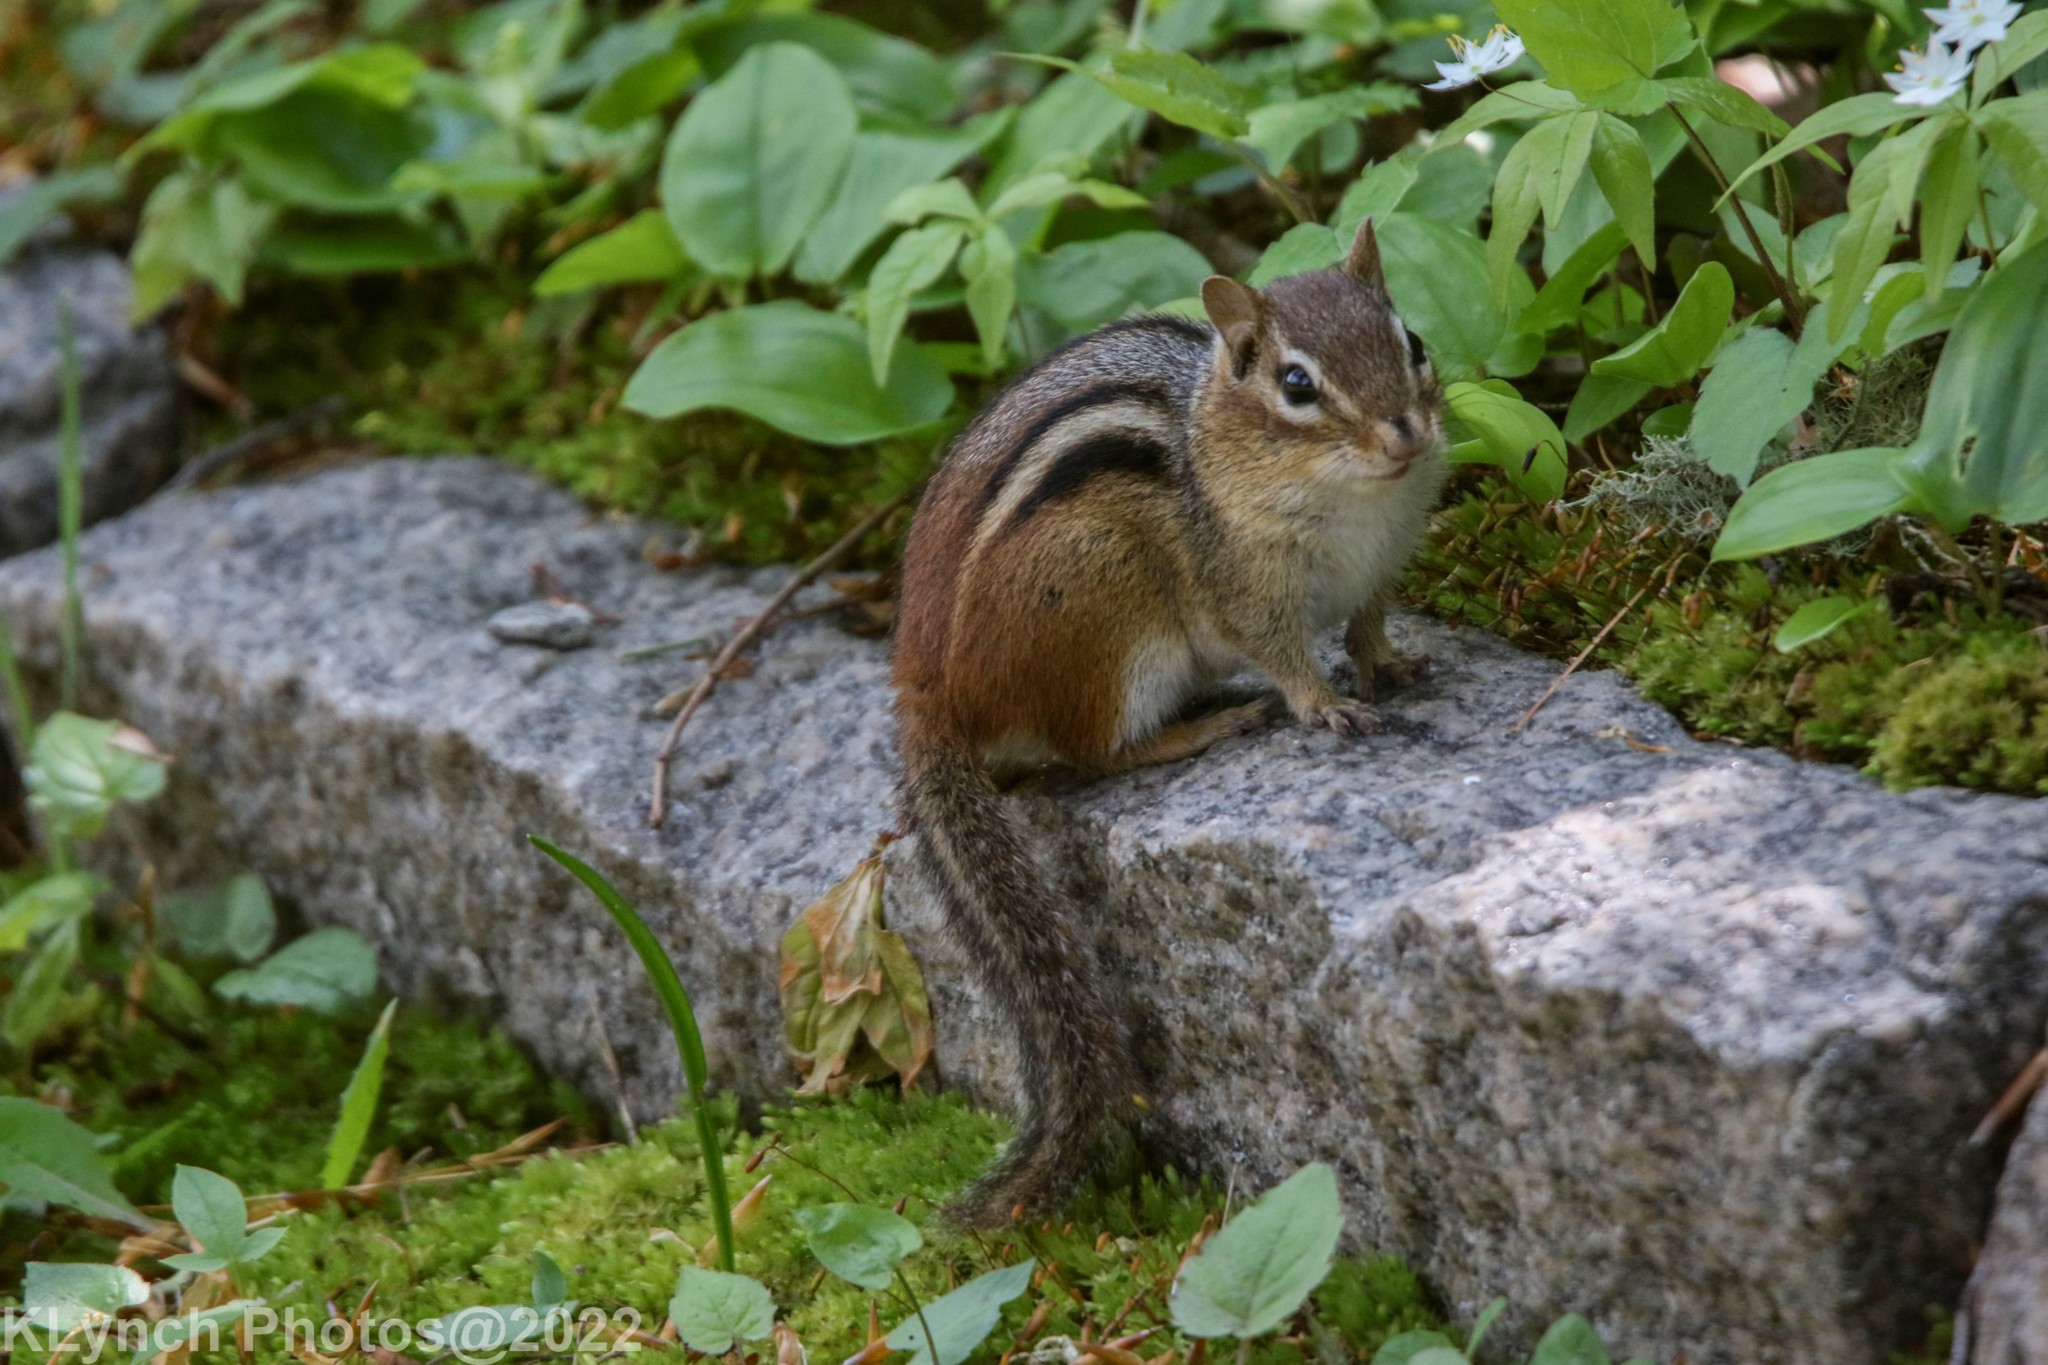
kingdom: Animalia
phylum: Chordata
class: Mammalia
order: Rodentia
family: Sciuridae
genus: Tamias
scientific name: Tamias striatus
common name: Eastern chipmunk
